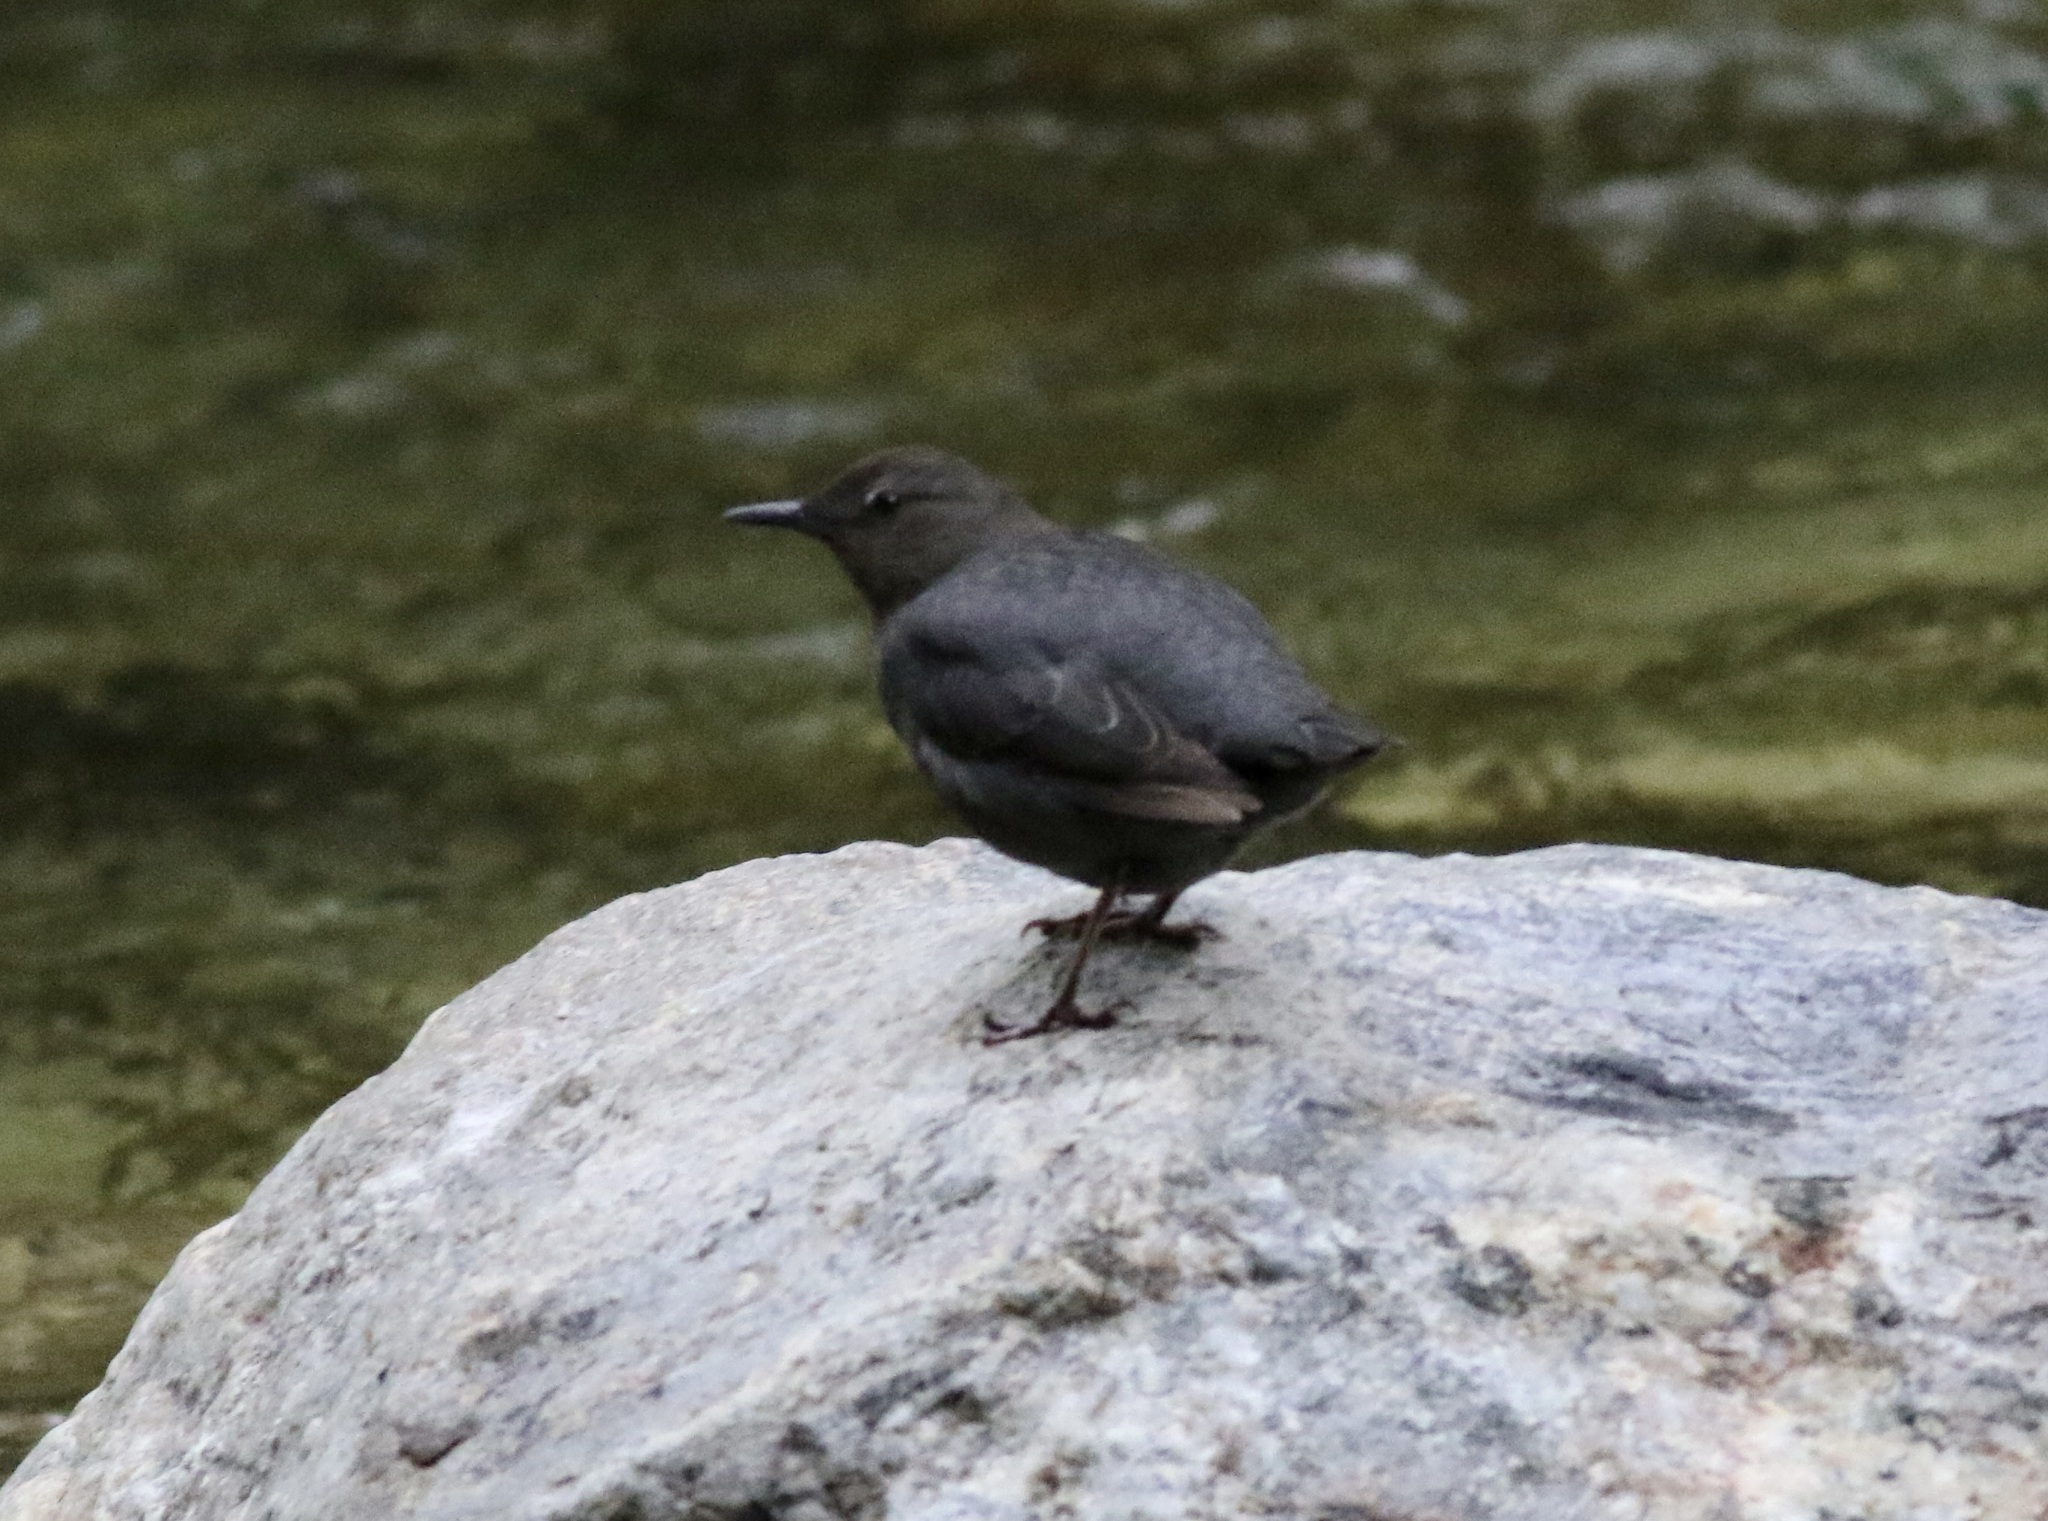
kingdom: Animalia
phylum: Chordata
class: Aves
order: Passeriformes
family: Cinclidae
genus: Cinclus
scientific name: Cinclus mexicanus
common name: American dipper
